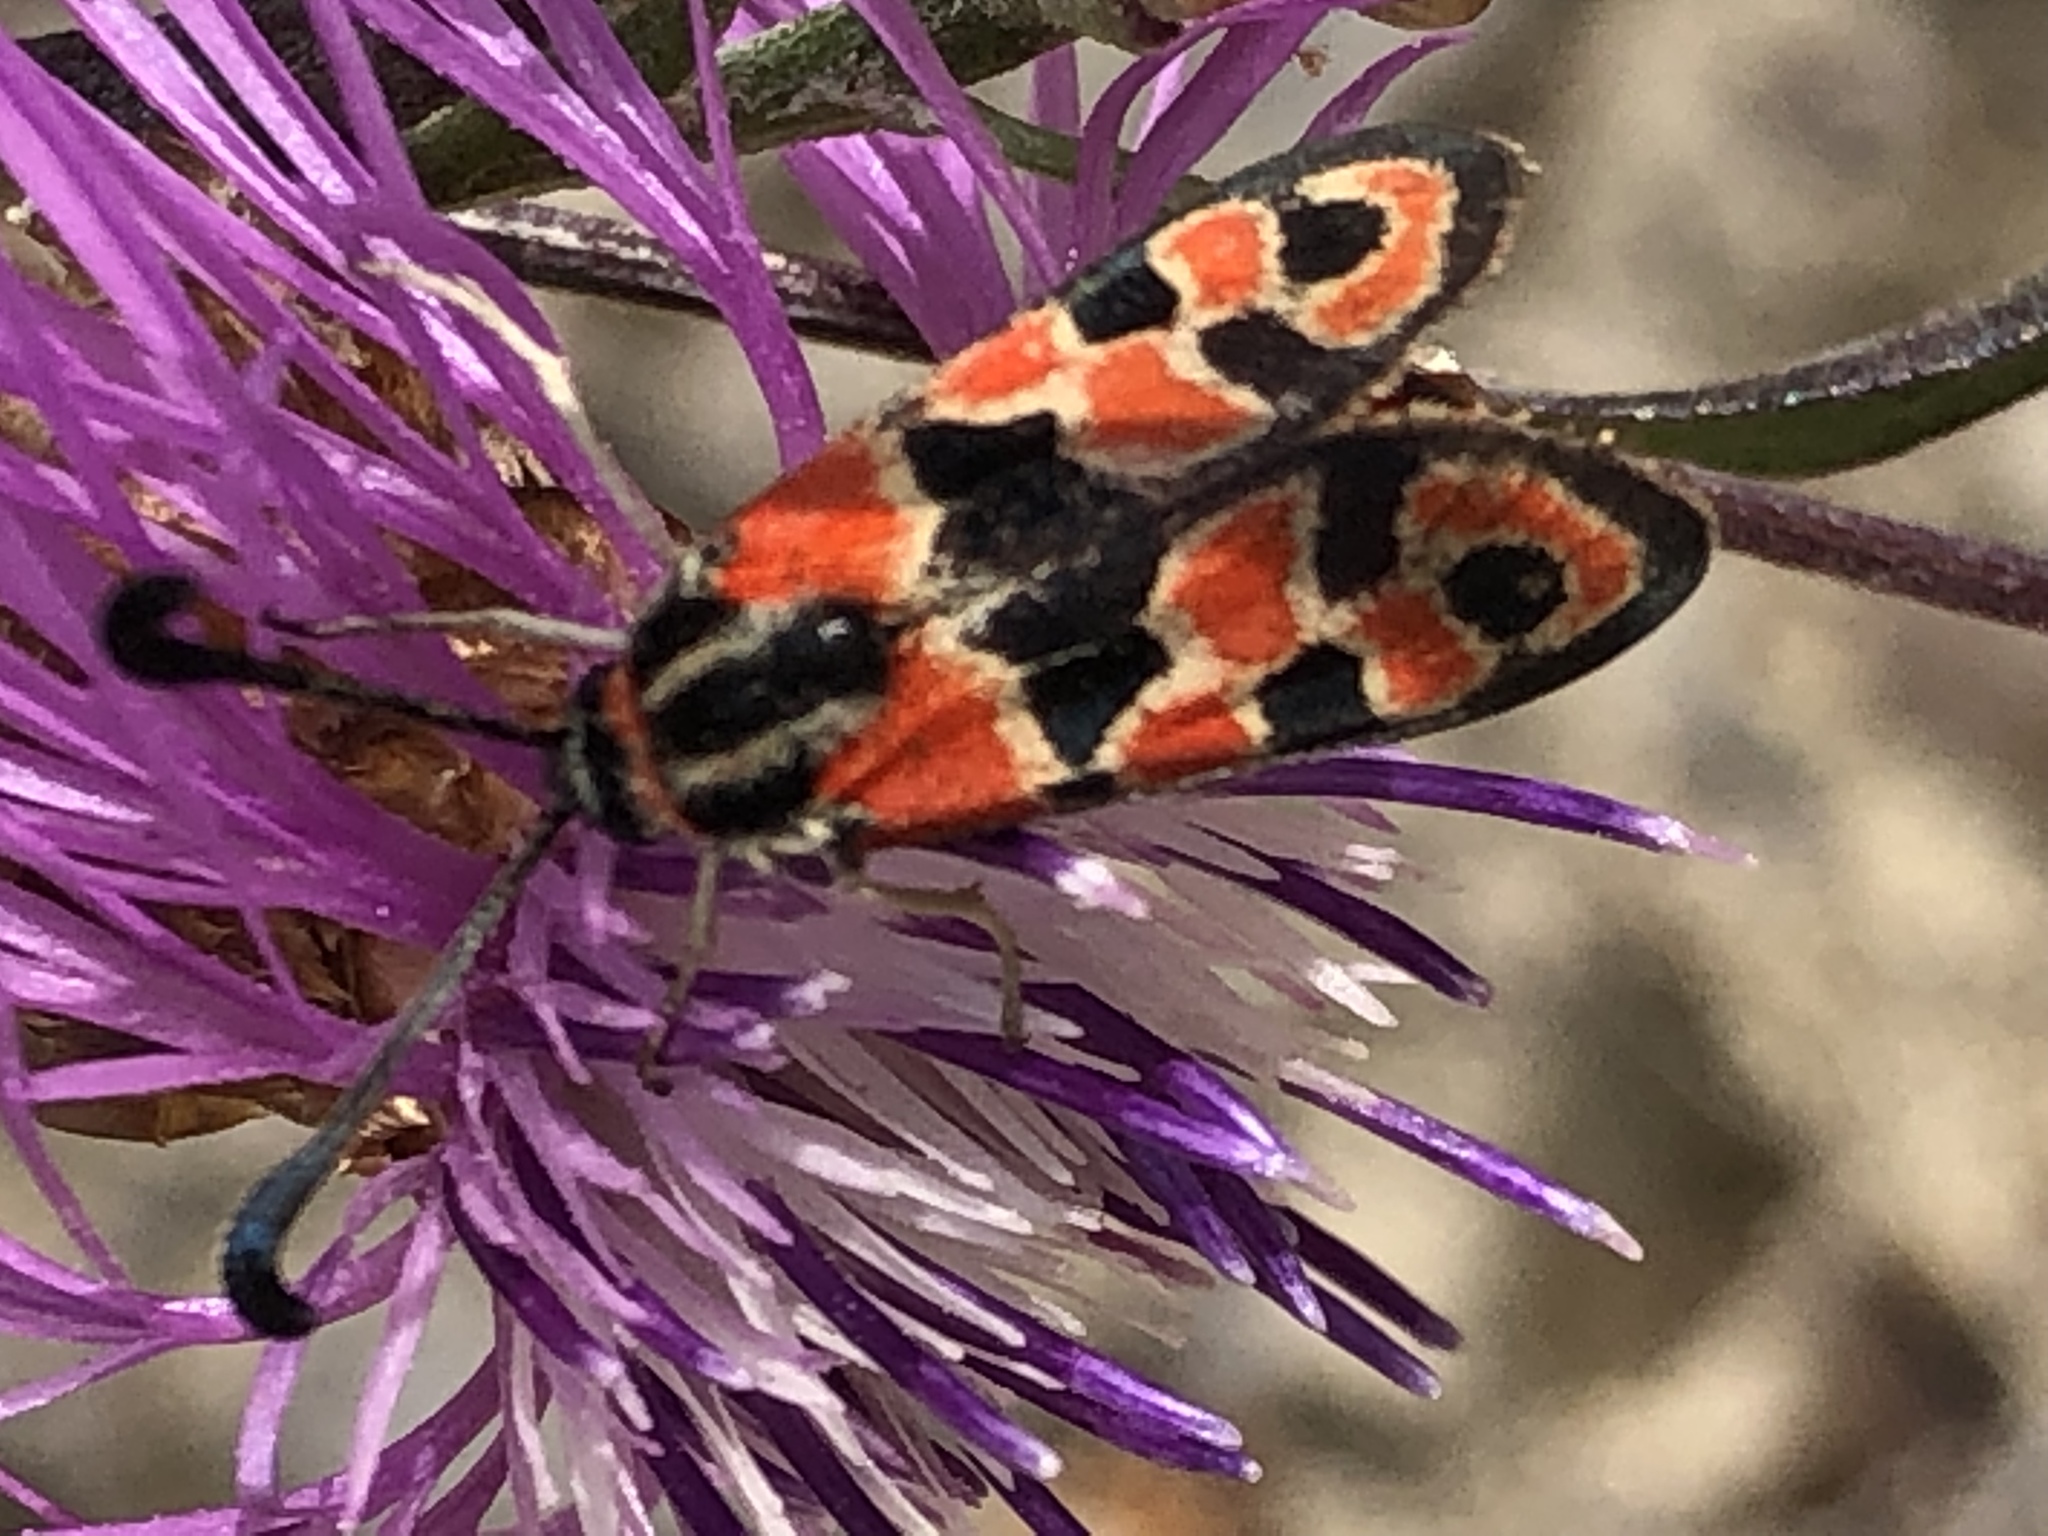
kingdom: Animalia
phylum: Arthropoda
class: Insecta
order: Lepidoptera
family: Zygaenidae
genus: Zygaena
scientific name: Zygaena fausta
